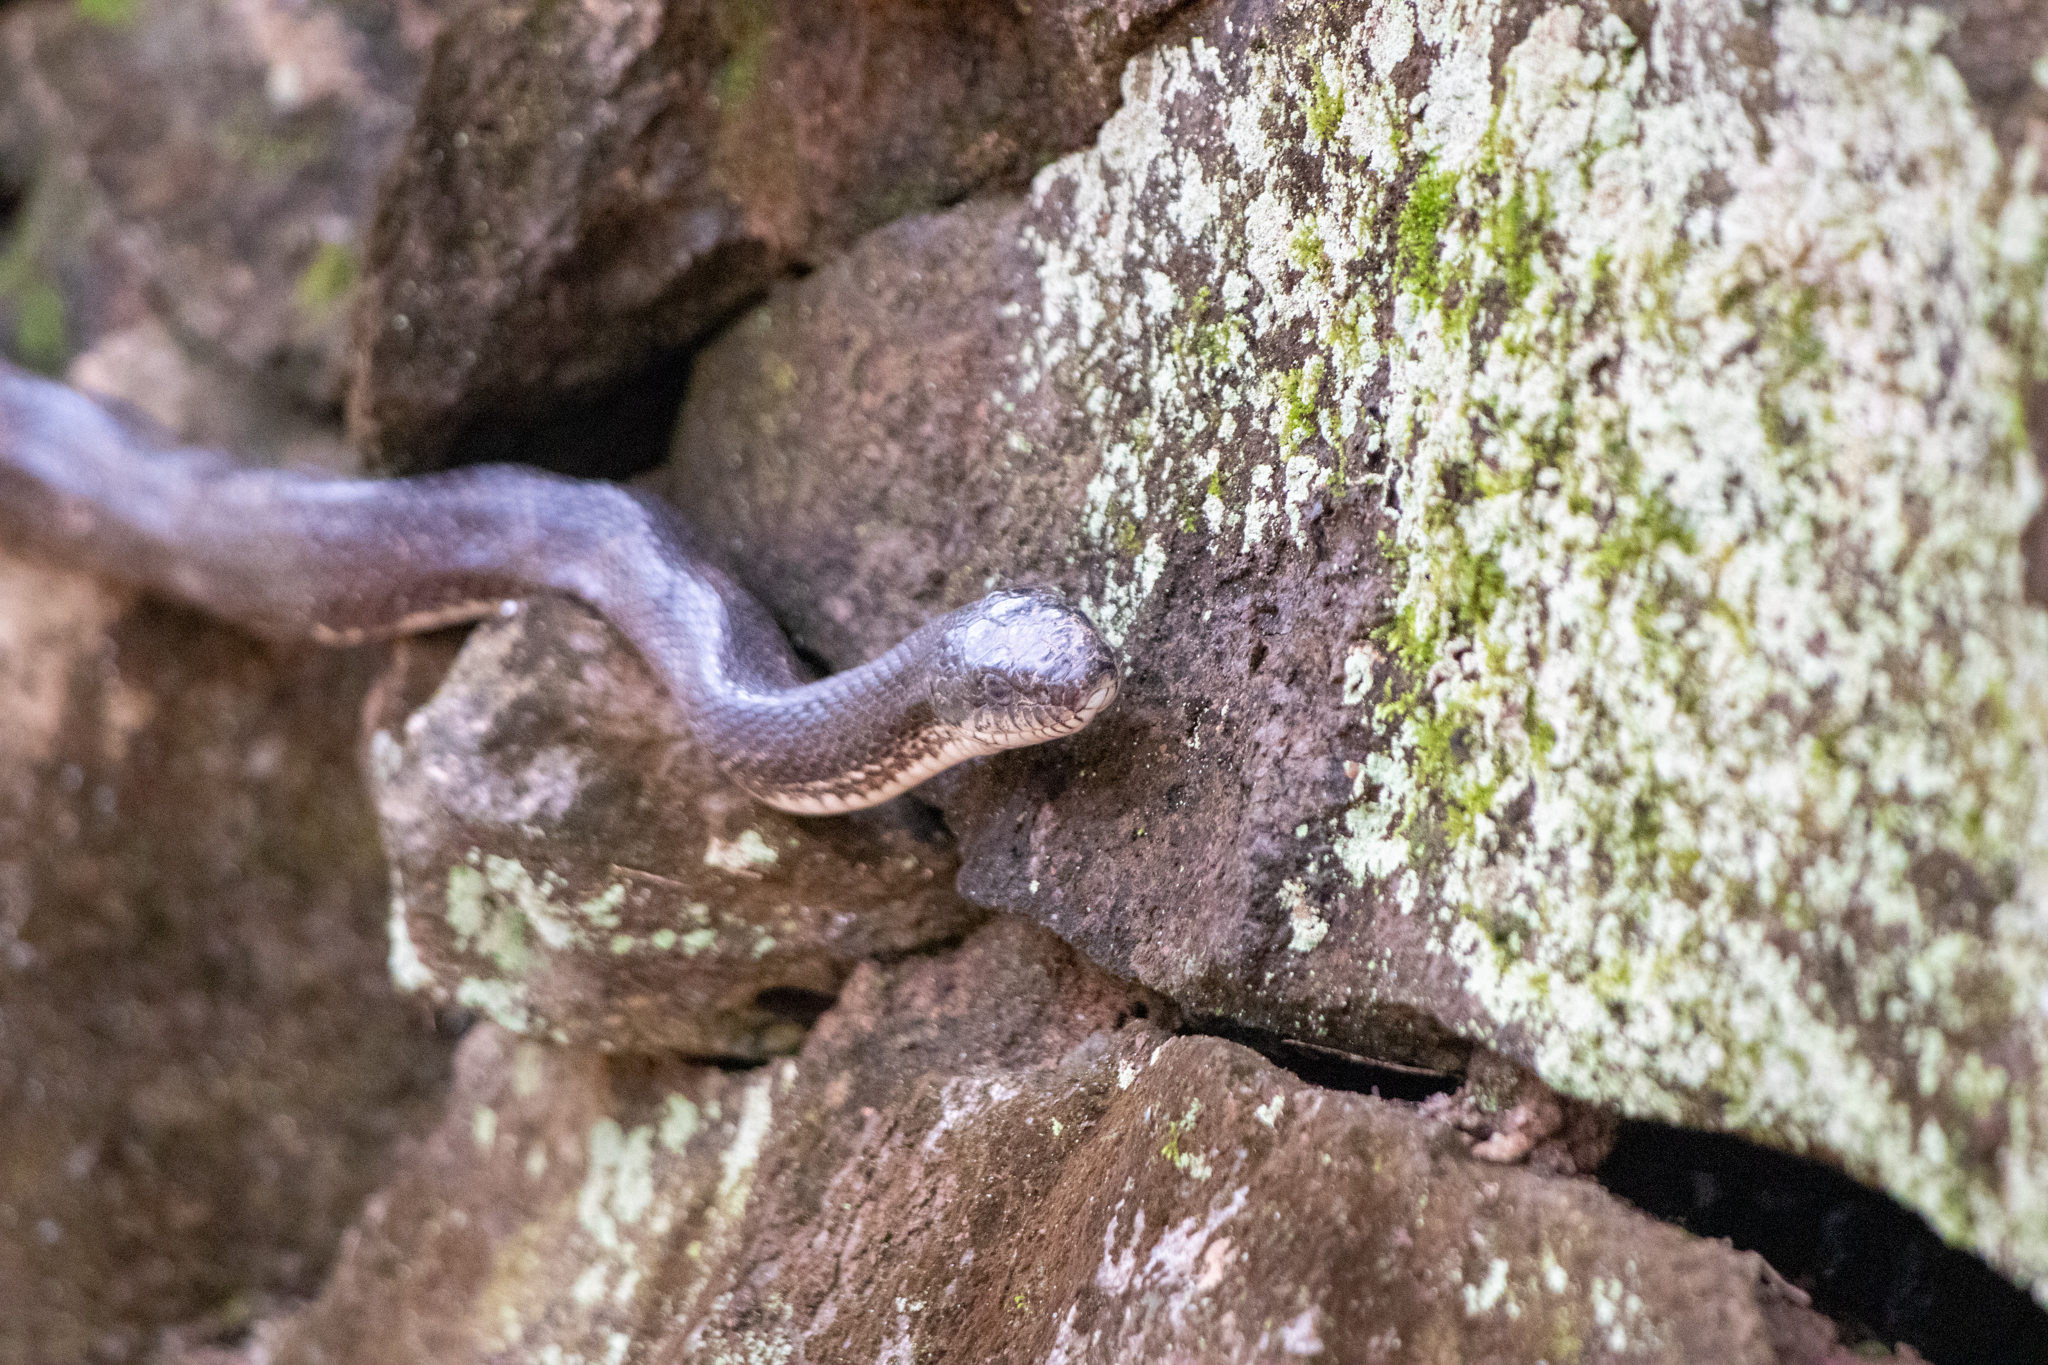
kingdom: Animalia
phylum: Chordata
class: Squamata
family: Colubridae
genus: Pantherophis
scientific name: Pantherophis alleghaniensis
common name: Eastern rat snake
